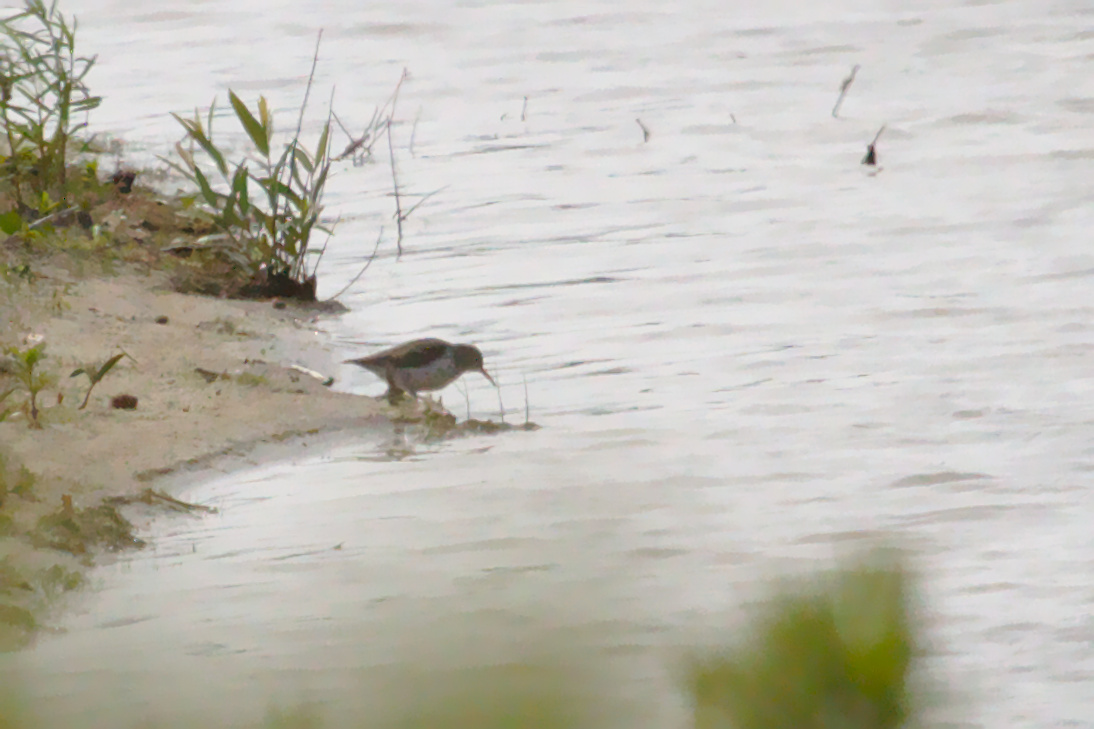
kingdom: Animalia
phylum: Chordata
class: Aves
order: Charadriiformes
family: Scolopacidae
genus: Actitis
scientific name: Actitis macularius
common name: Spotted sandpiper
